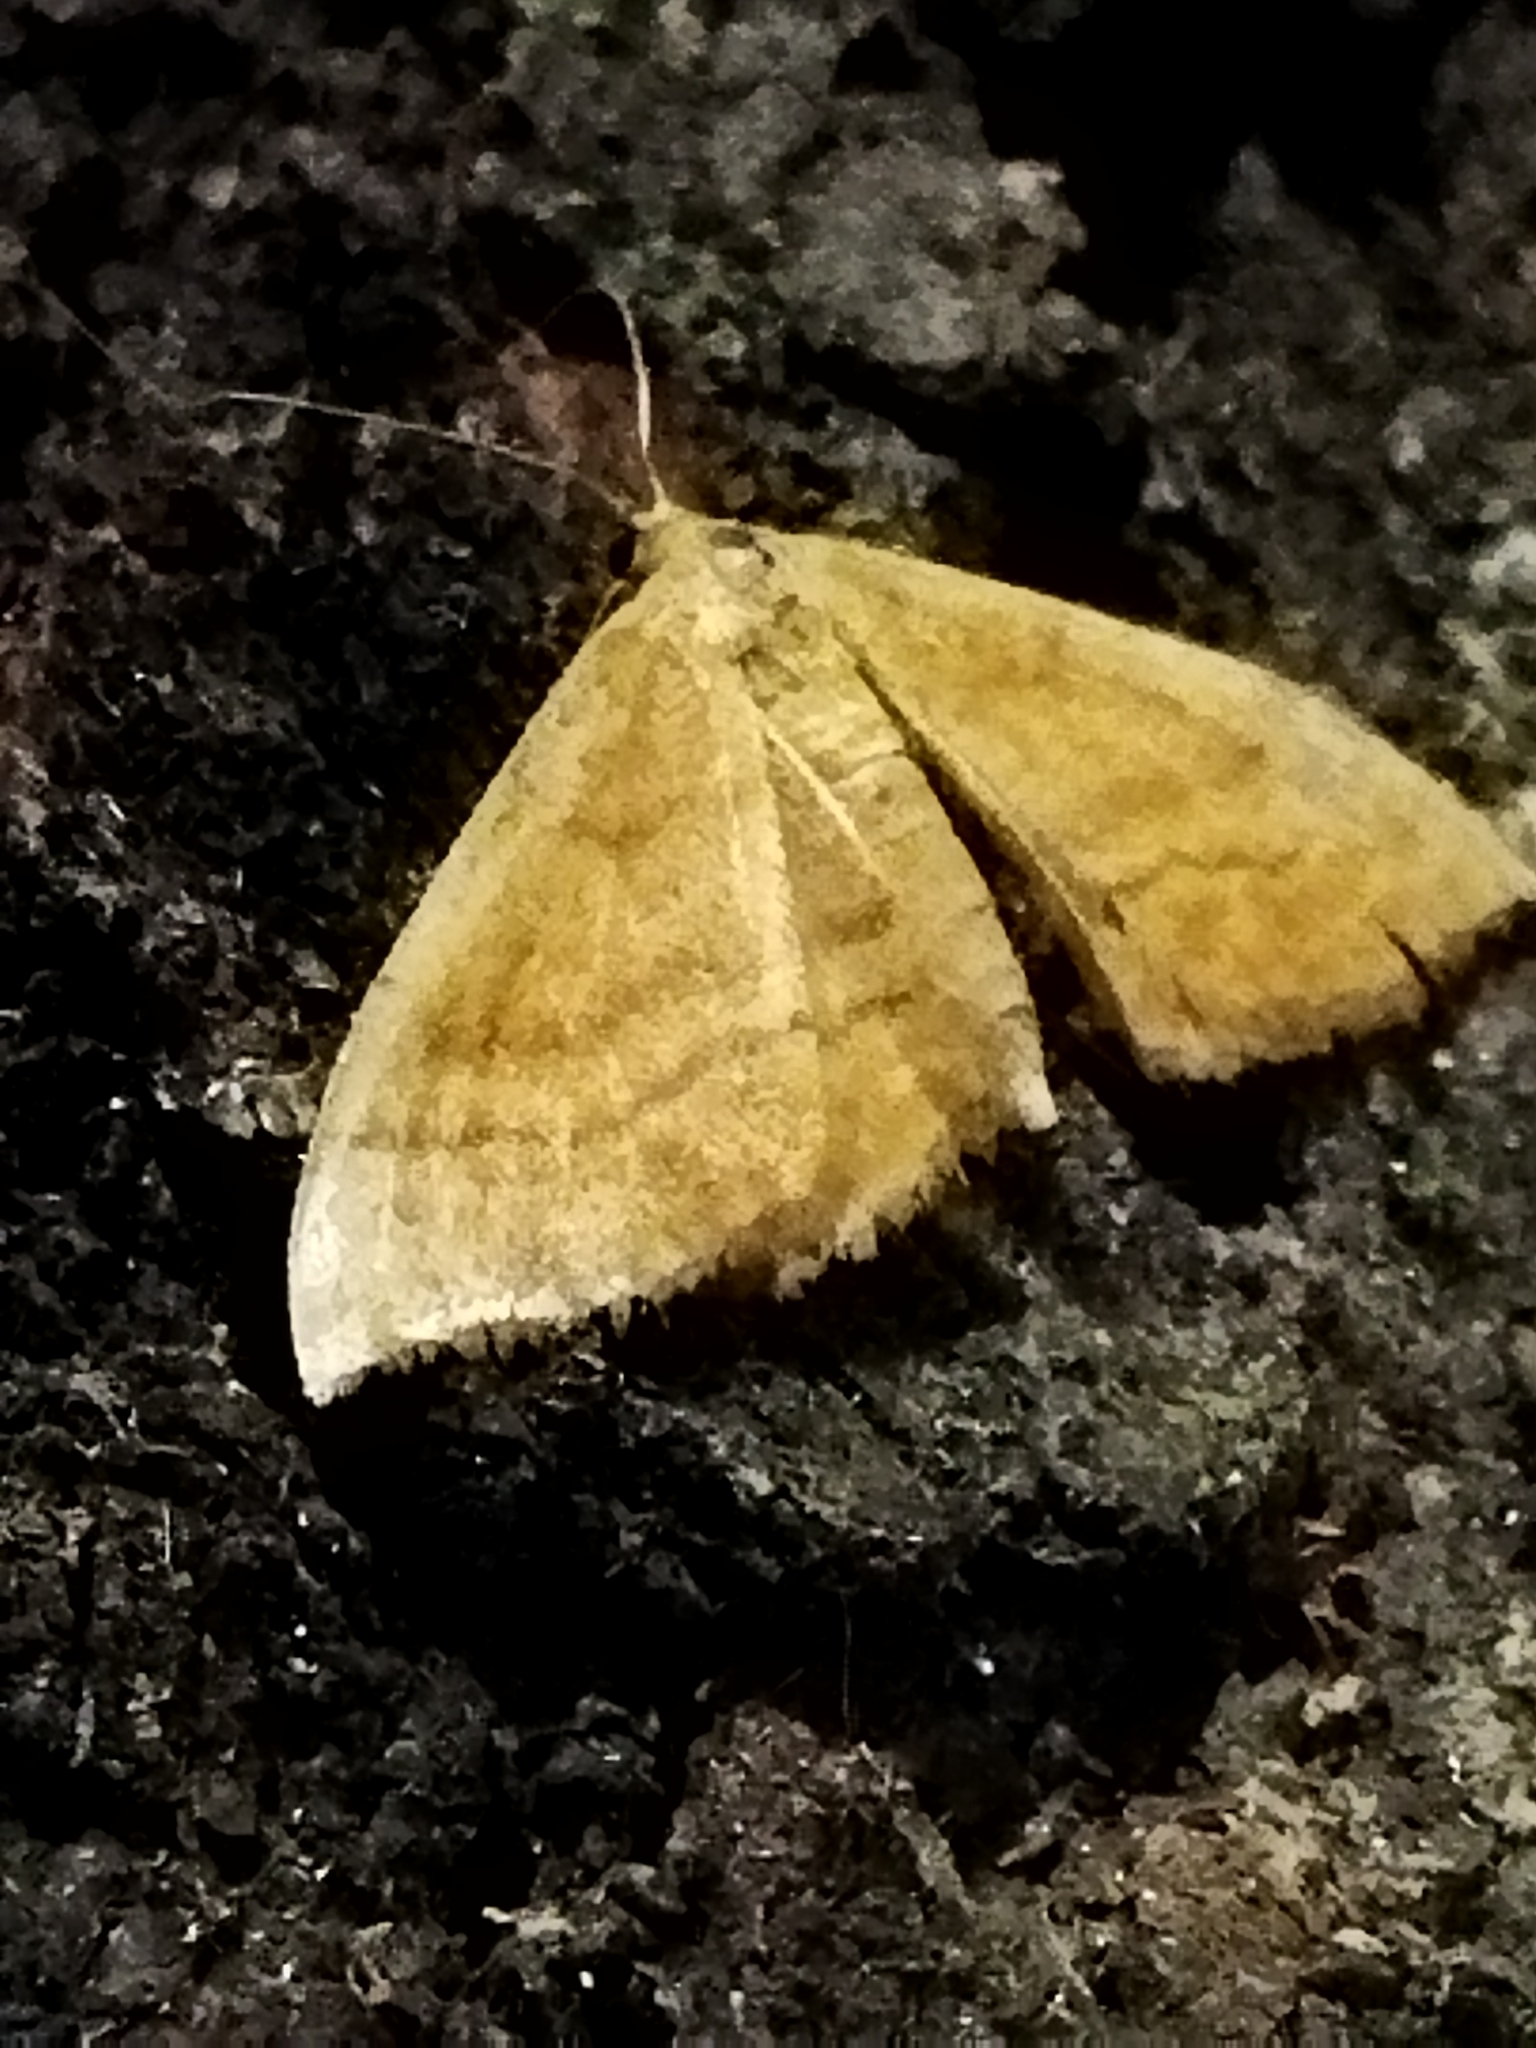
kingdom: Animalia
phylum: Arthropoda
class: Insecta
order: Lepidoptera
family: Geometridae
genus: Idaea
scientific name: Idaea ochrata
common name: Bright wave
